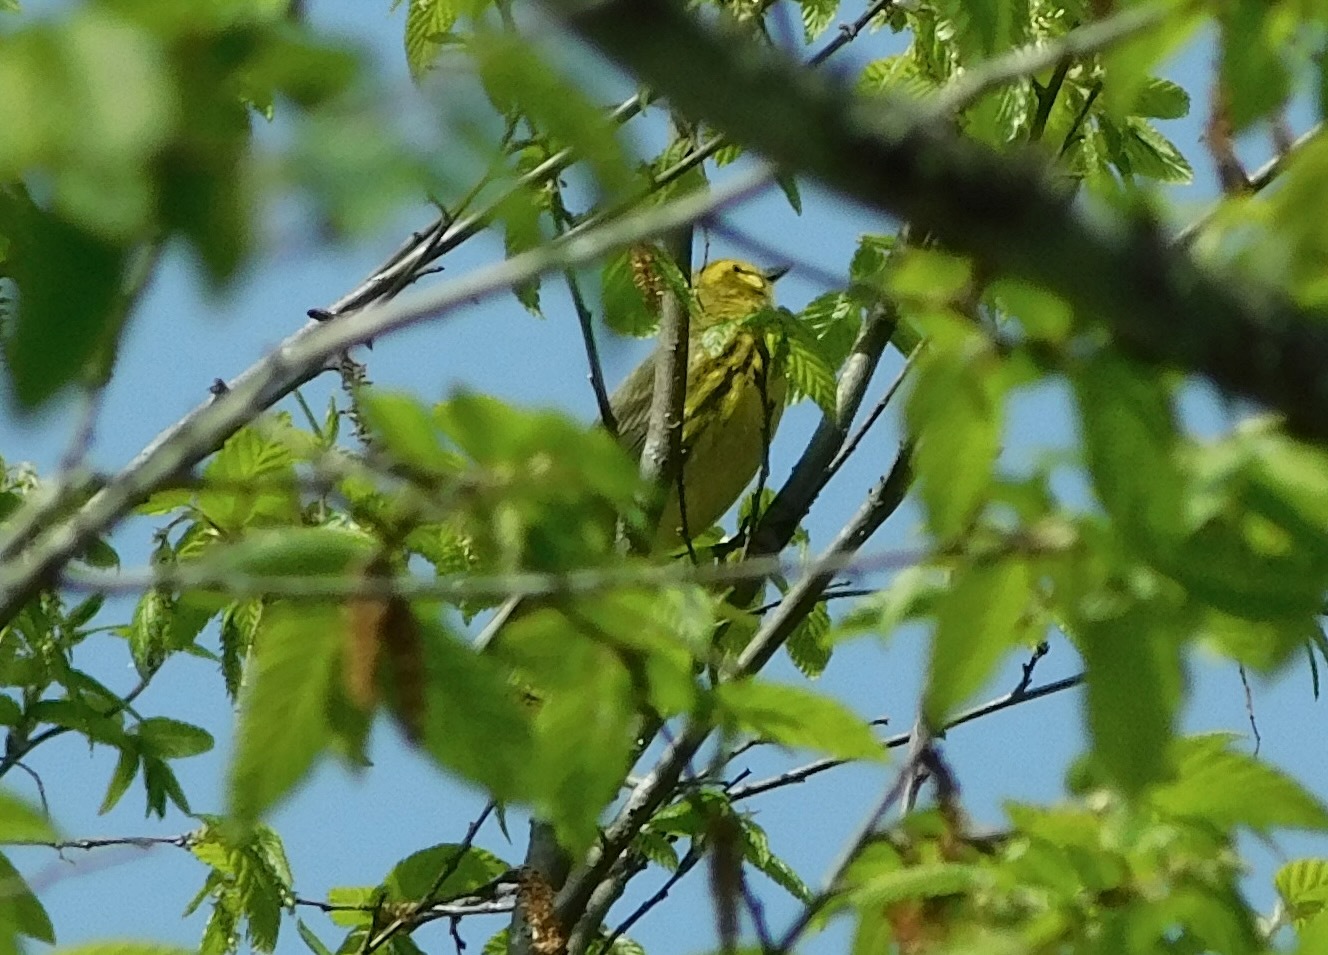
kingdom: Animalia
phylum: Chordata
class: Aves
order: Passeriformes
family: Parulidae
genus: Setophaga
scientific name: Setophaga discolor
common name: Prairie warbler
